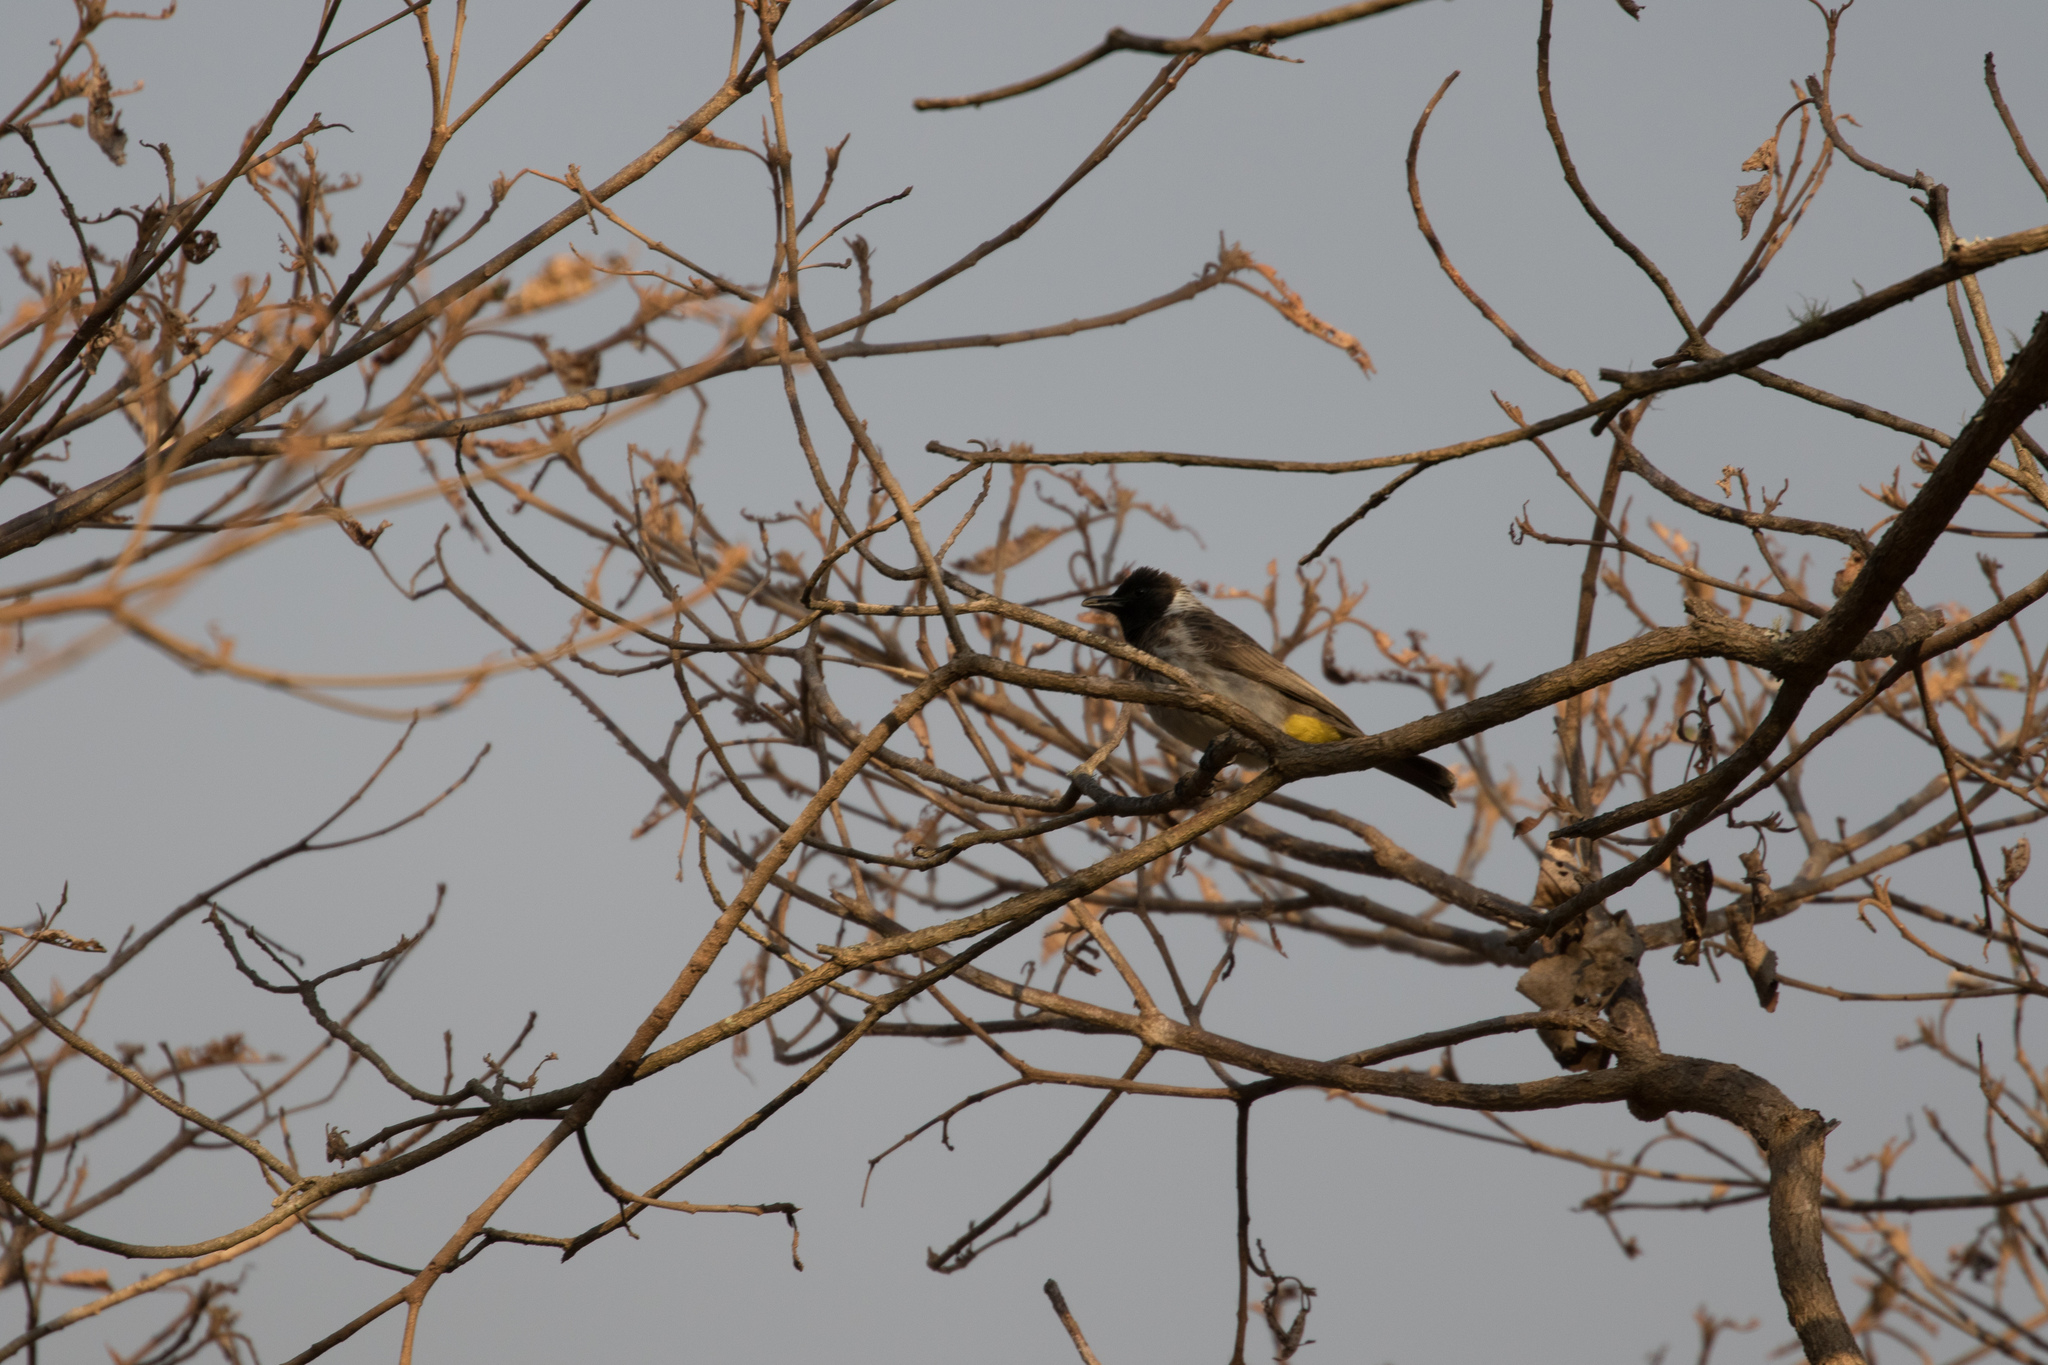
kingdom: Animalia
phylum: Chordata
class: Aves
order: Passeriformes
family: Pycnonotidae
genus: Pycnonotus
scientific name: Pycnonotus barbatus
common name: Common bulbul
